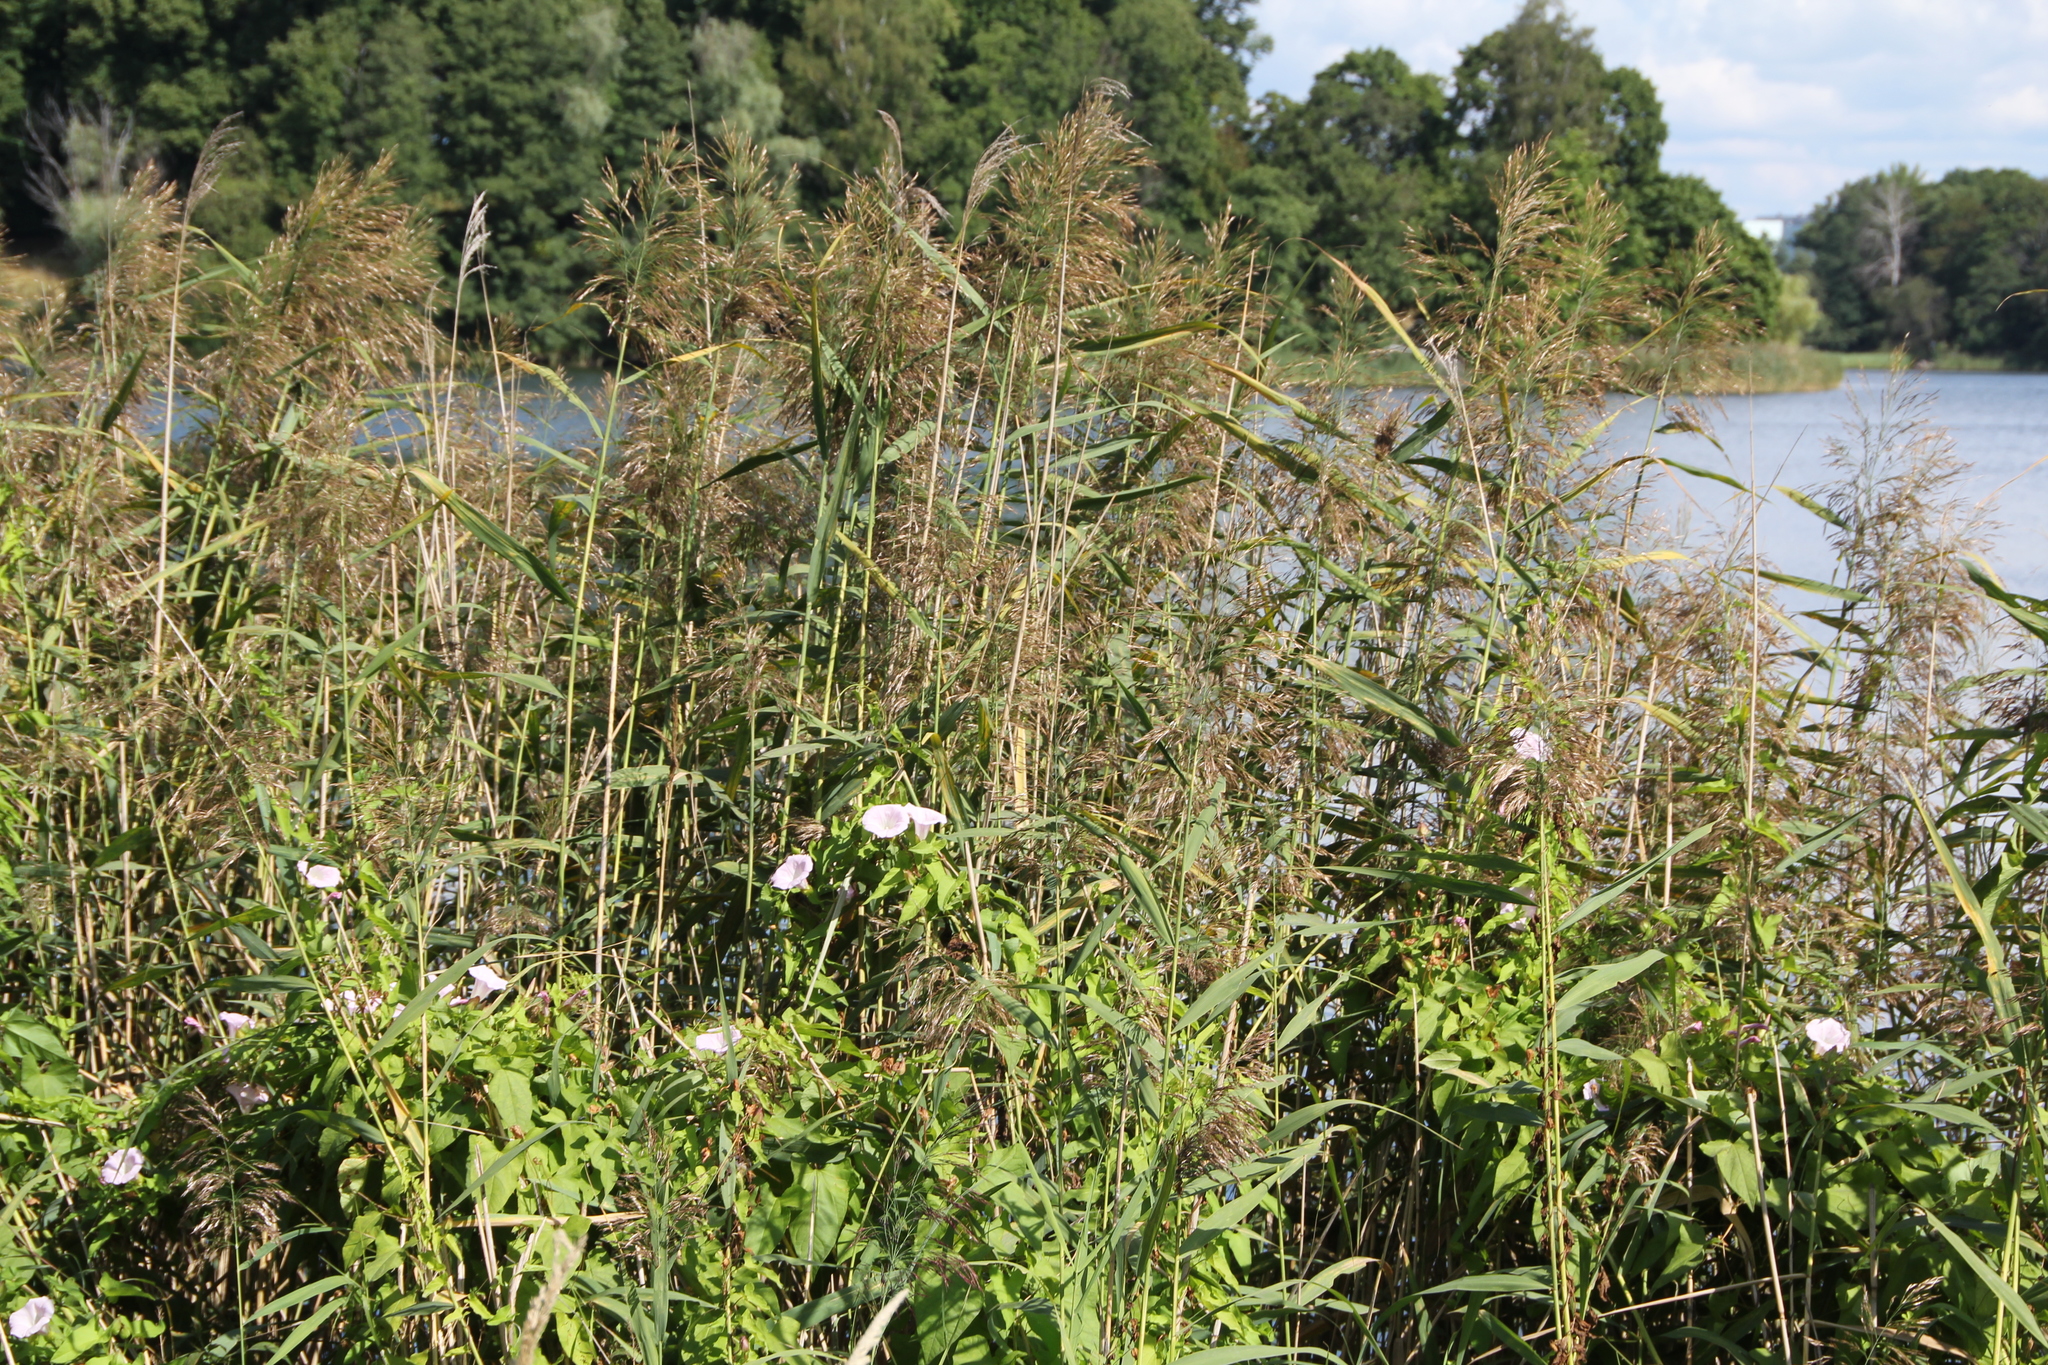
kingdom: Plantae
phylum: Tracheophyta
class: Liliopsida
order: Poales
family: Poaceae
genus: Phragmites
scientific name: Phragmites australis
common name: Common reed
